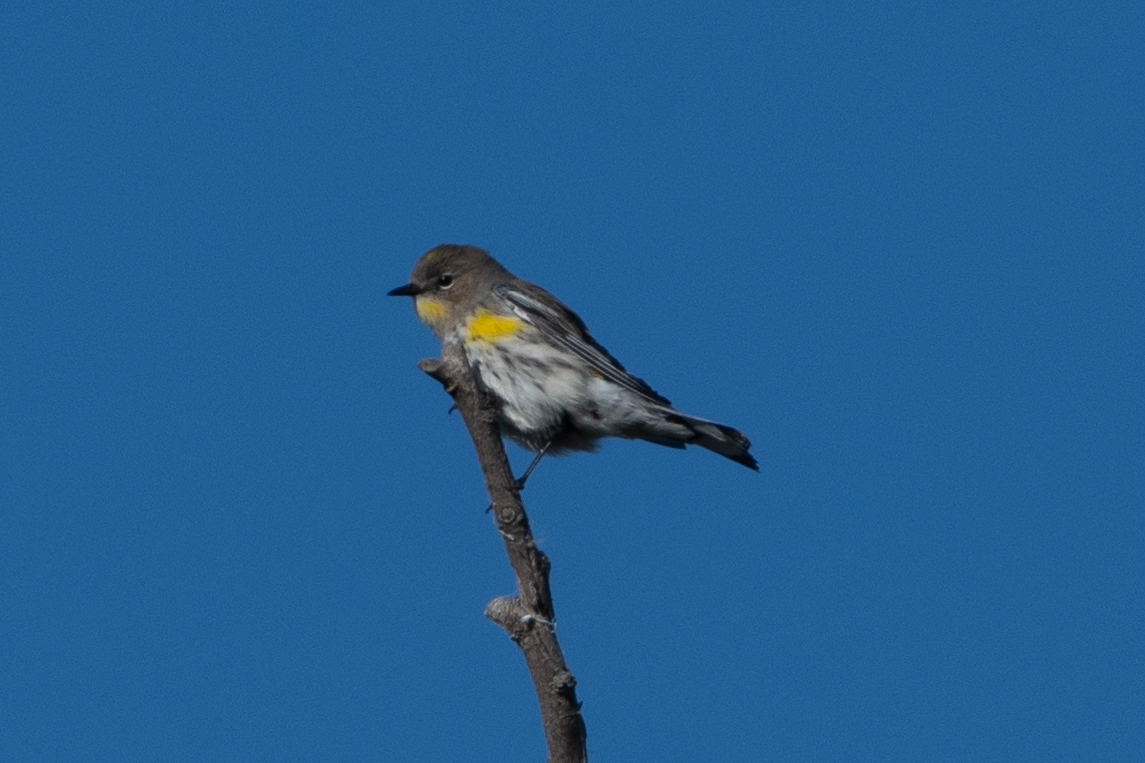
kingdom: Animalia
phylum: Chordata
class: Aves
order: Passeriformes
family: Parulidae
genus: Setophaga
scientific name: Setophaga coronata
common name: Myrtle warbler
